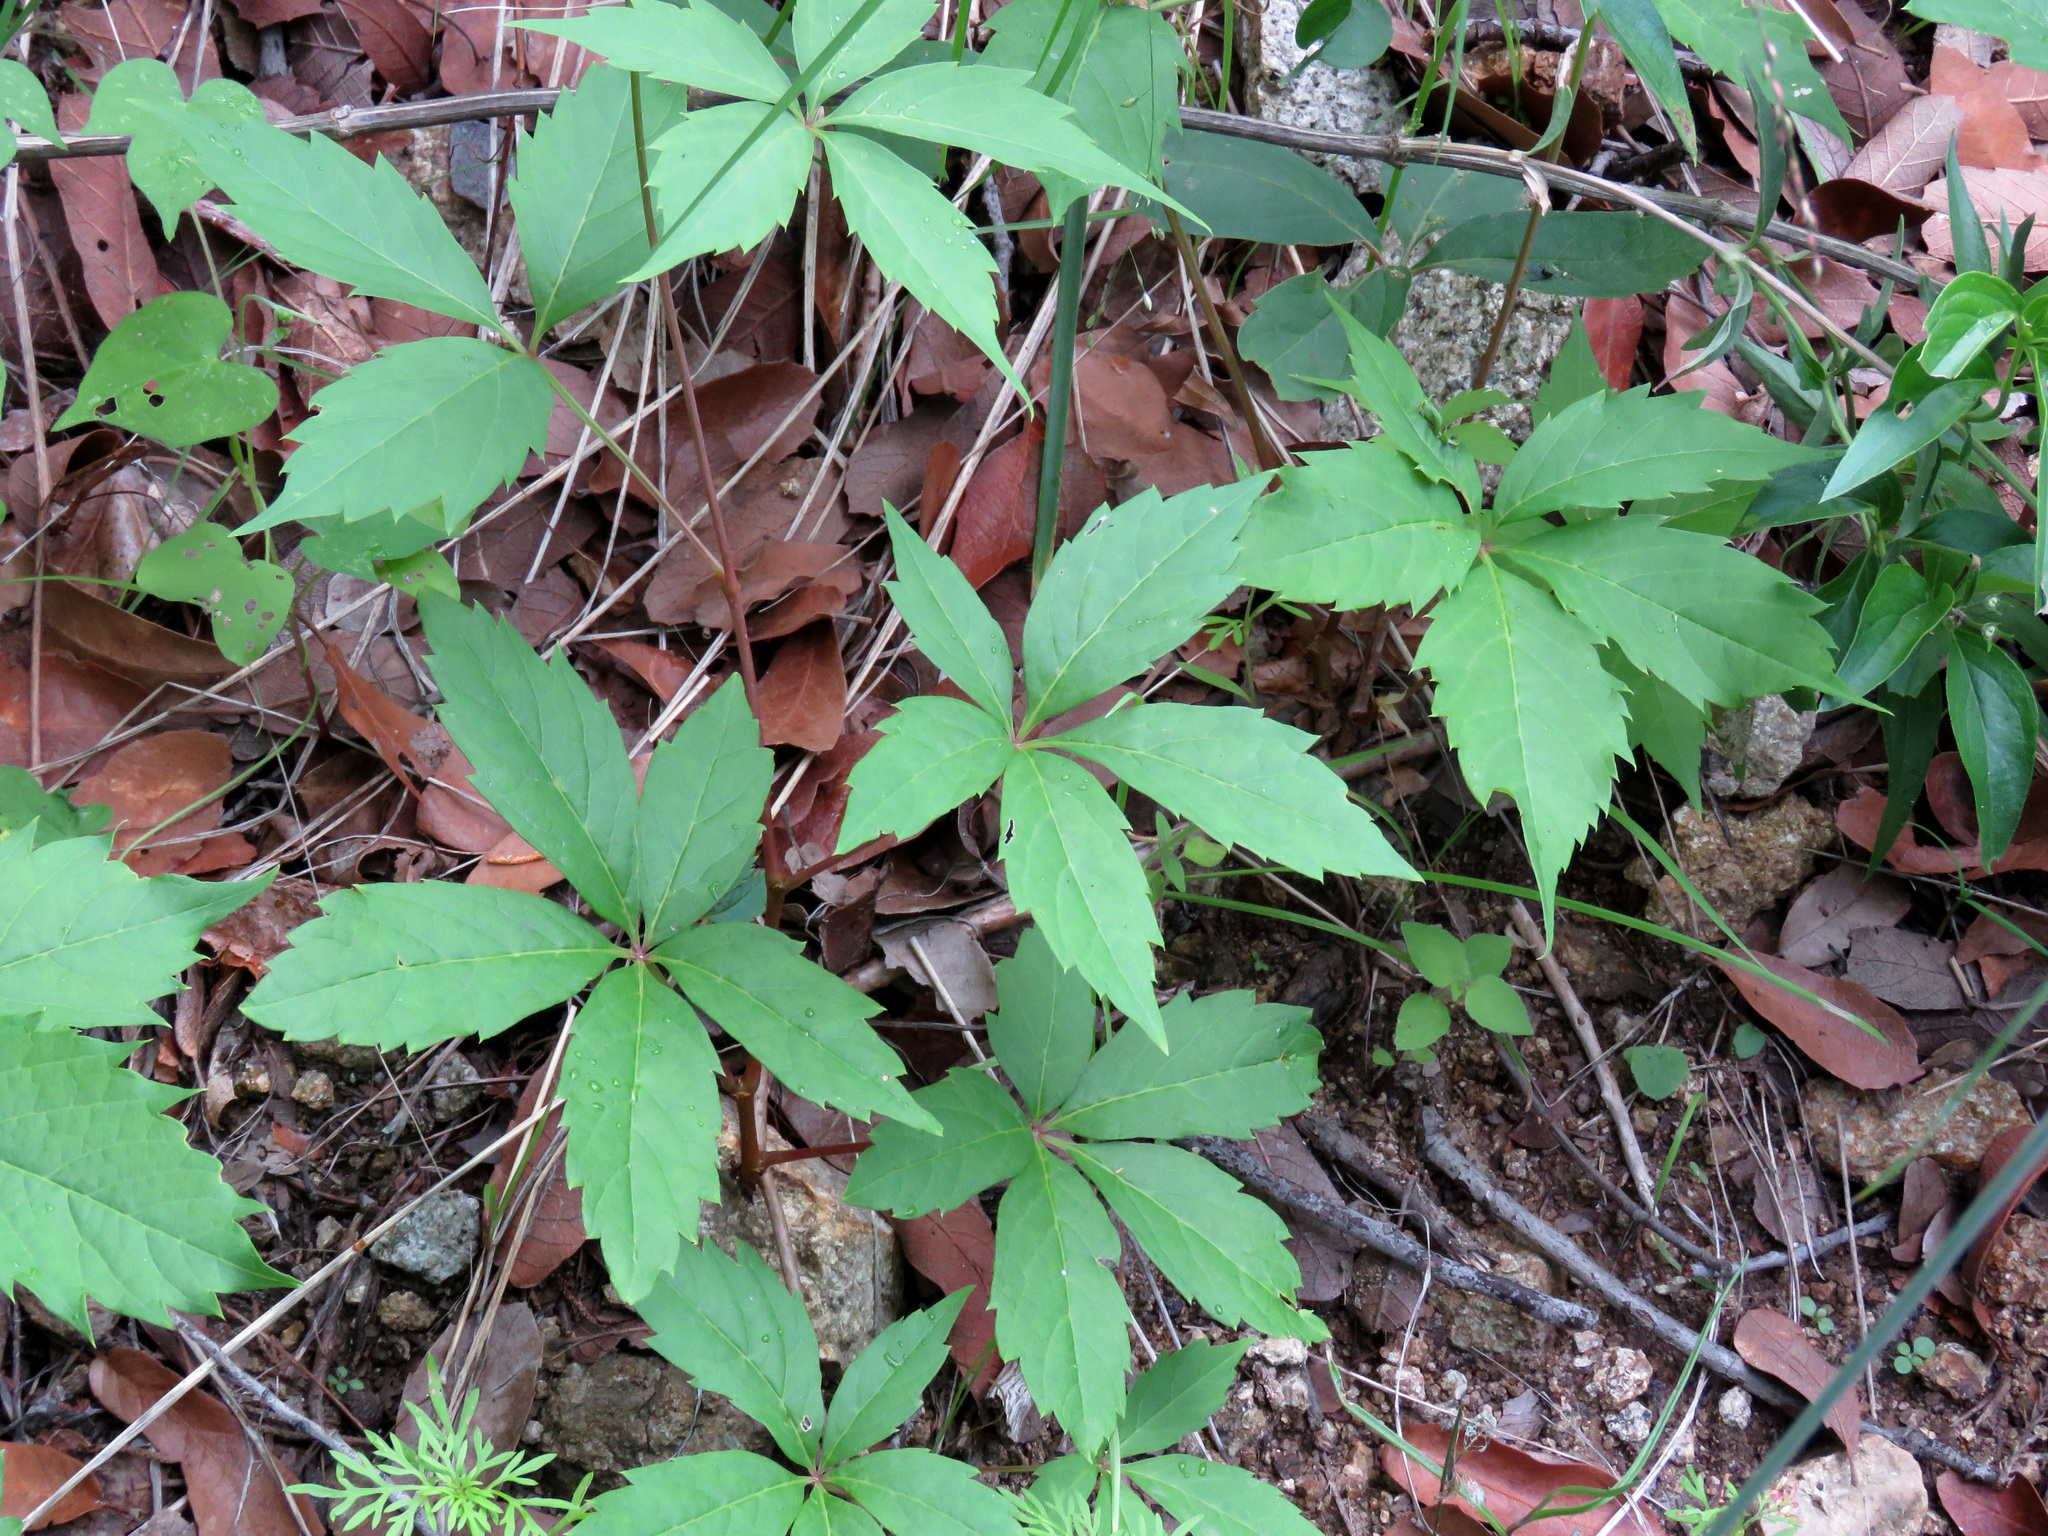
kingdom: Plantae
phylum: Tracheophyta
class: Magnoliopsida
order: Vitales
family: Vitaceae
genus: Parthenocissus
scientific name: Parthenocissus inserta
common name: False virginia-creeper
